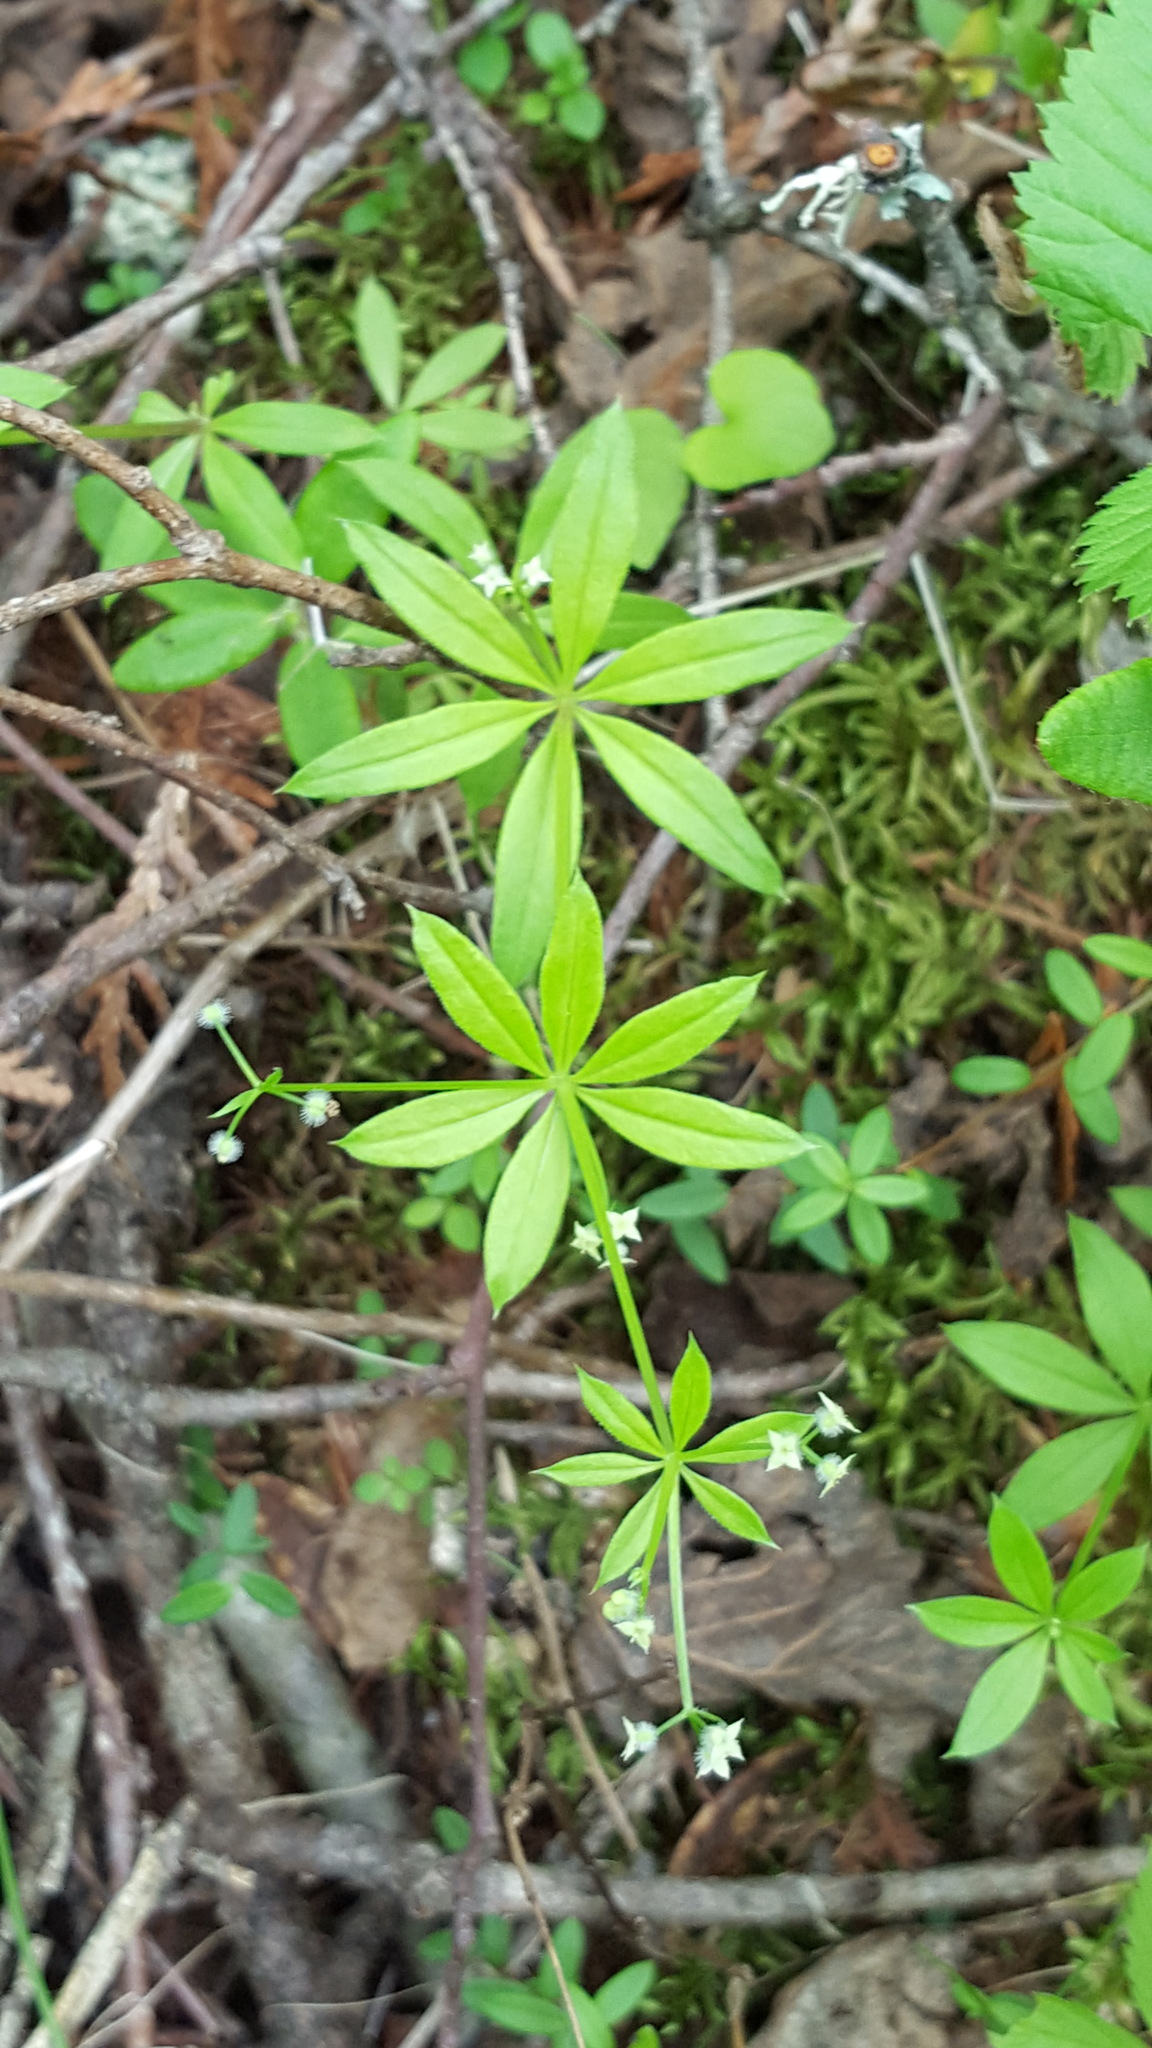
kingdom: Plantae
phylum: Tracheophyta
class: Magnoliopsida
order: Gentianales
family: Rubiaceae
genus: Galium
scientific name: Galium triflorum
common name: Fragrant bedstraw
